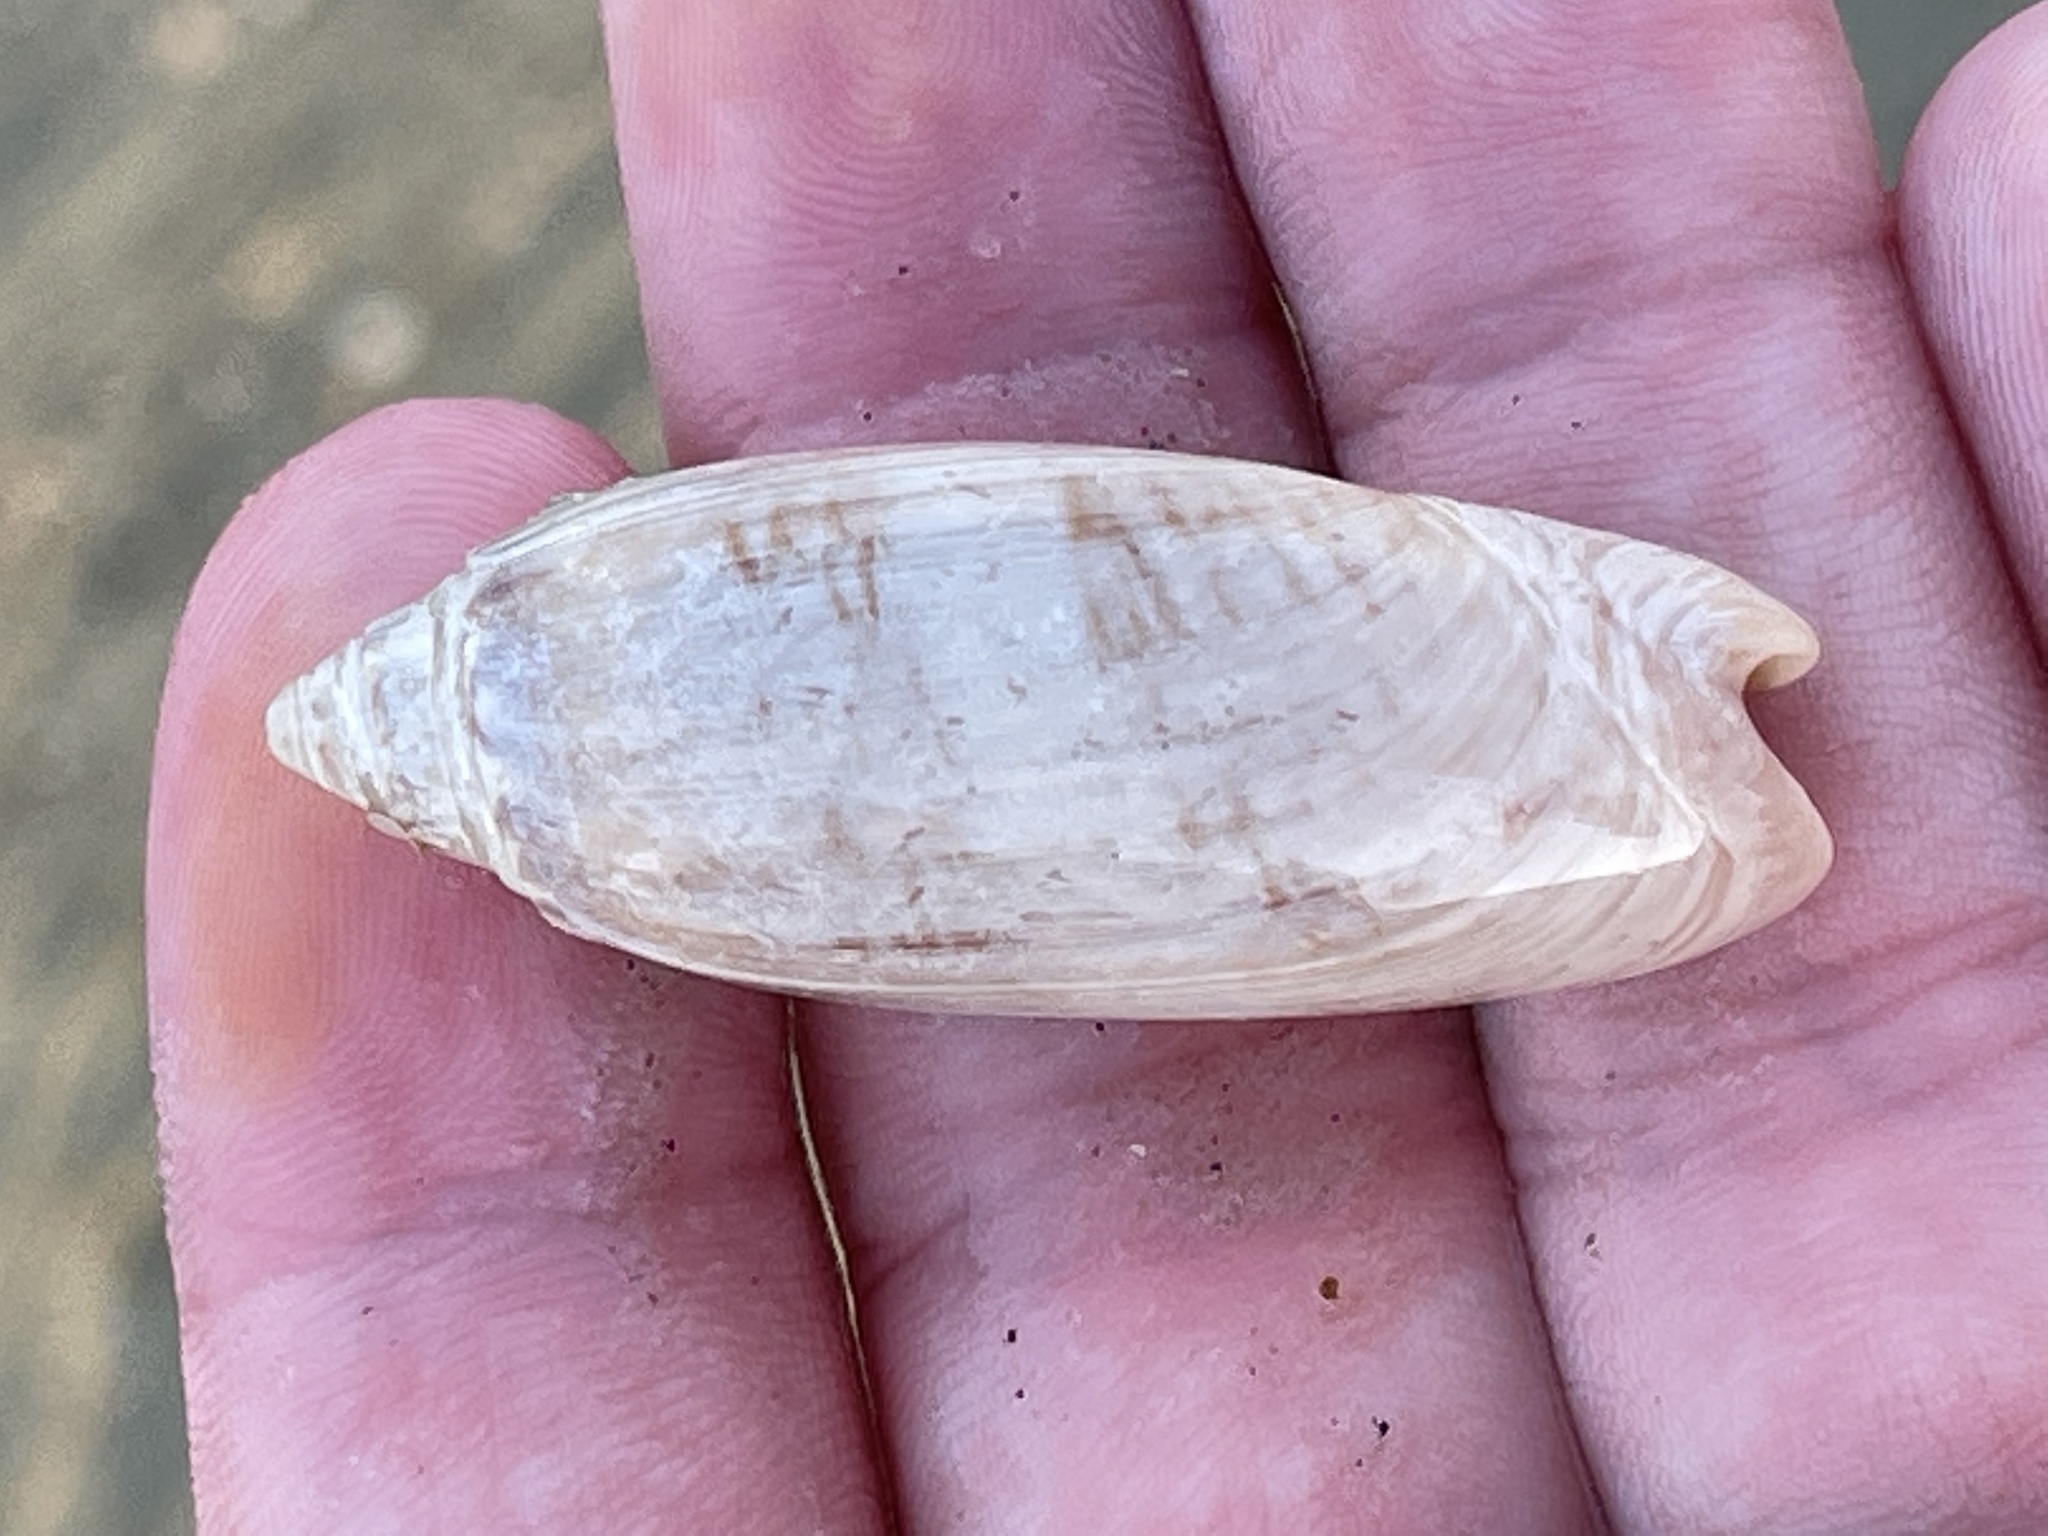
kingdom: Animalia
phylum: Mollusca
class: Gastropoda
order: Neogastropoda
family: Olividae
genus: Oliva
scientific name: Oliva sayana
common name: Lettered olive
